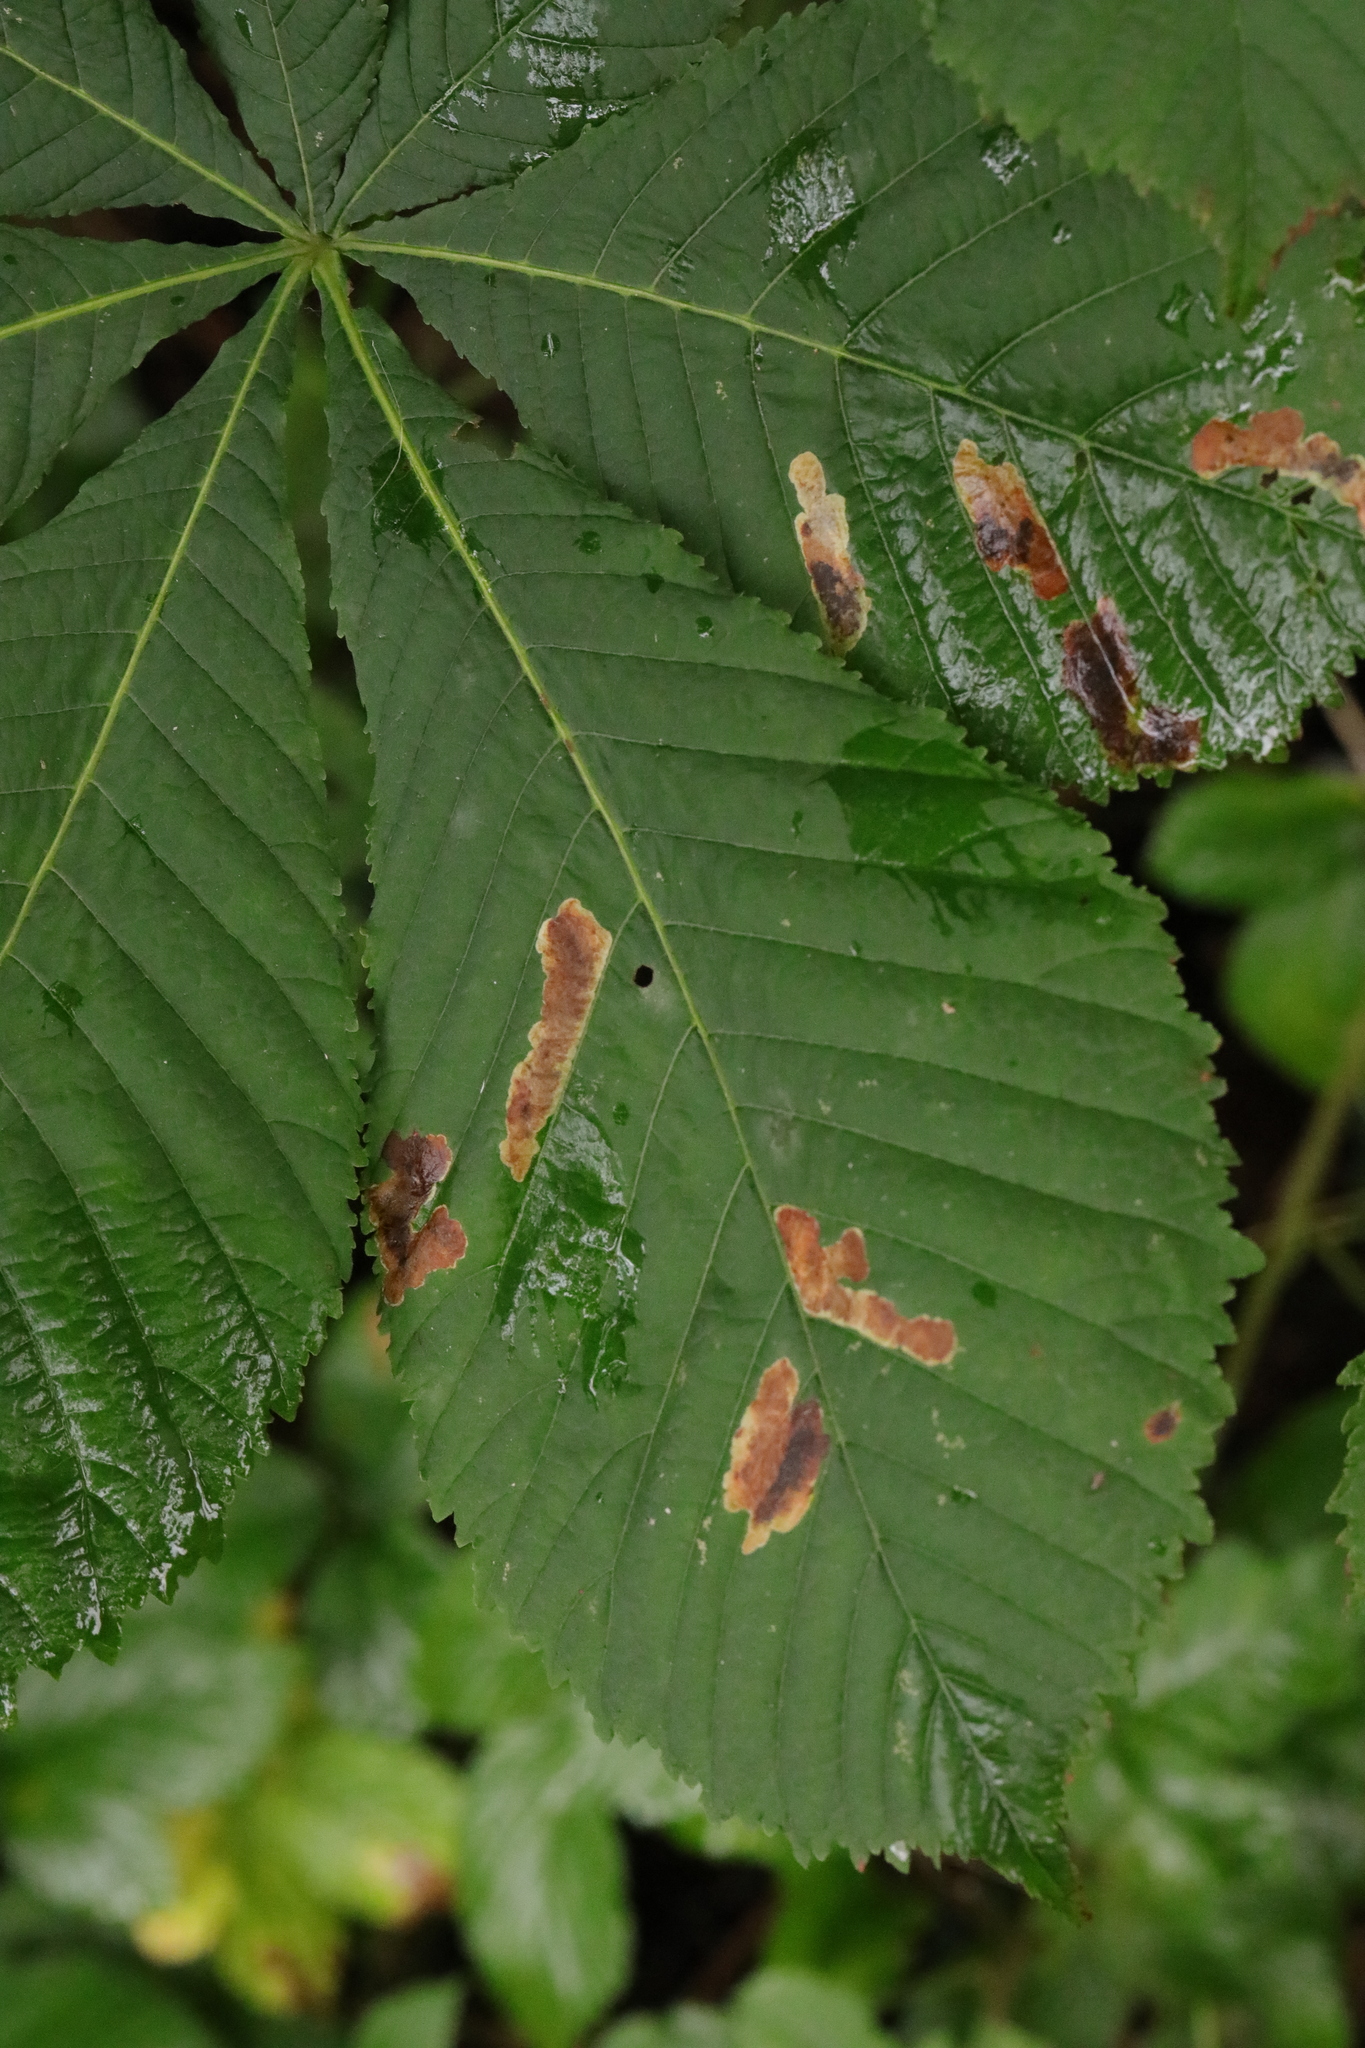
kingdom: Animalia
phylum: Arthropoda
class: Insecta
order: Lepidoptera
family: Gracillariidae
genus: Cameraria
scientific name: Cameraria ohridella
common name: Horse-chestnut leaf-miner
